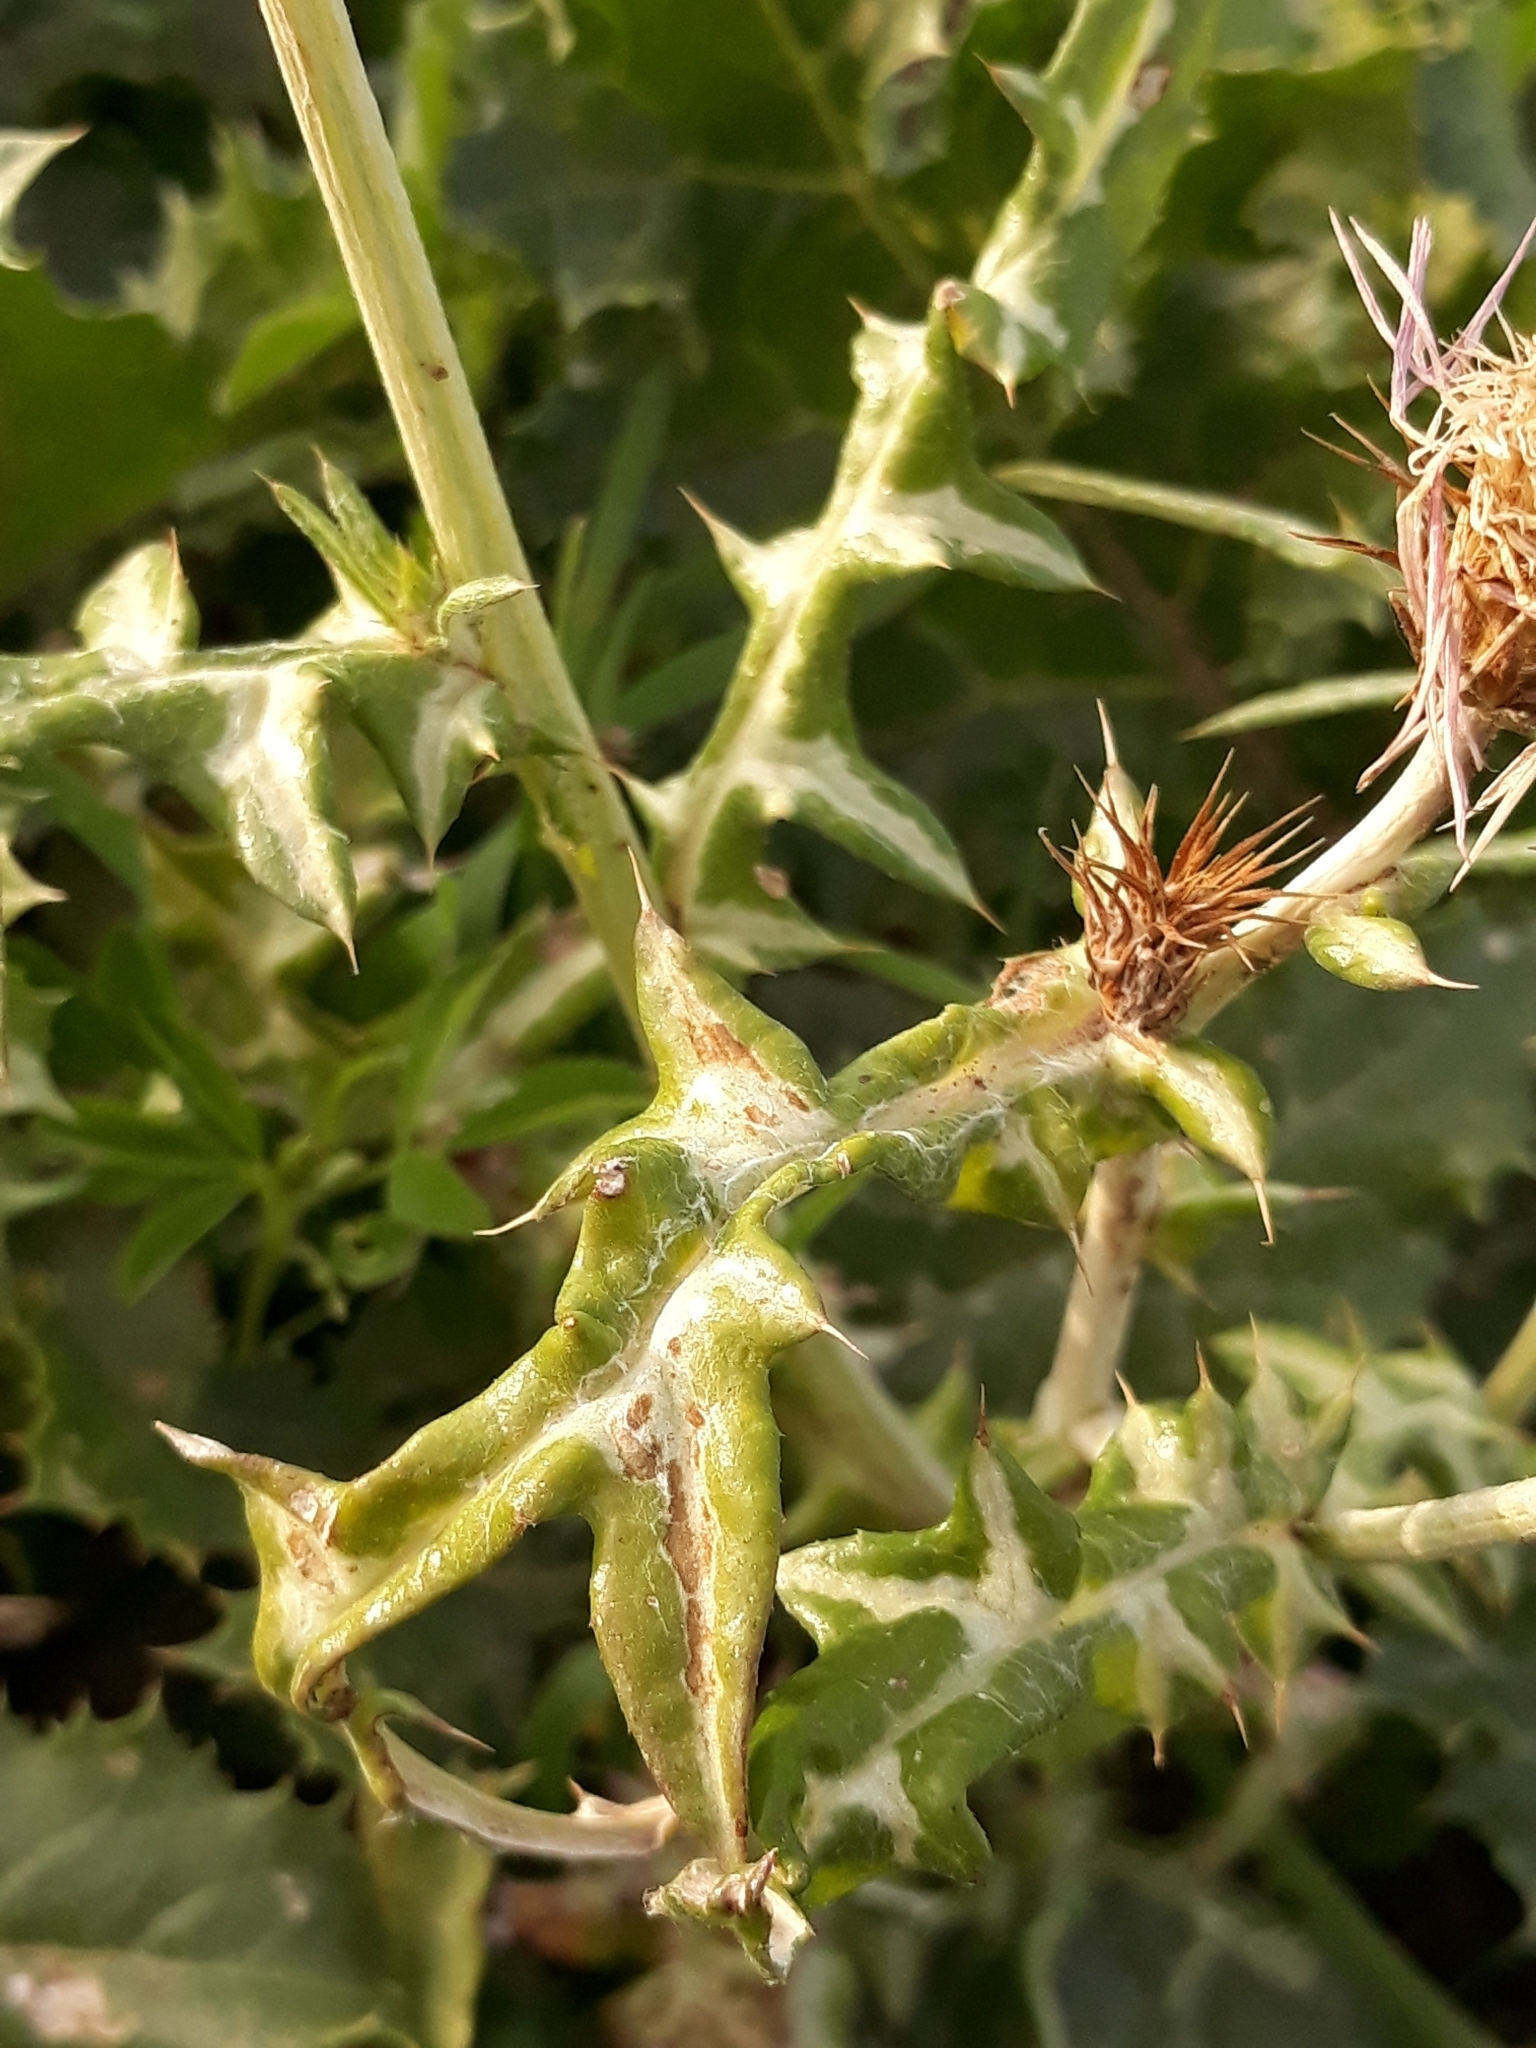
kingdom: Plantae
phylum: Tracheophyta
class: Magnoliopsida
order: Asterales
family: Asteraceae
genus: Galactites
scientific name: Galactites tomentosa
